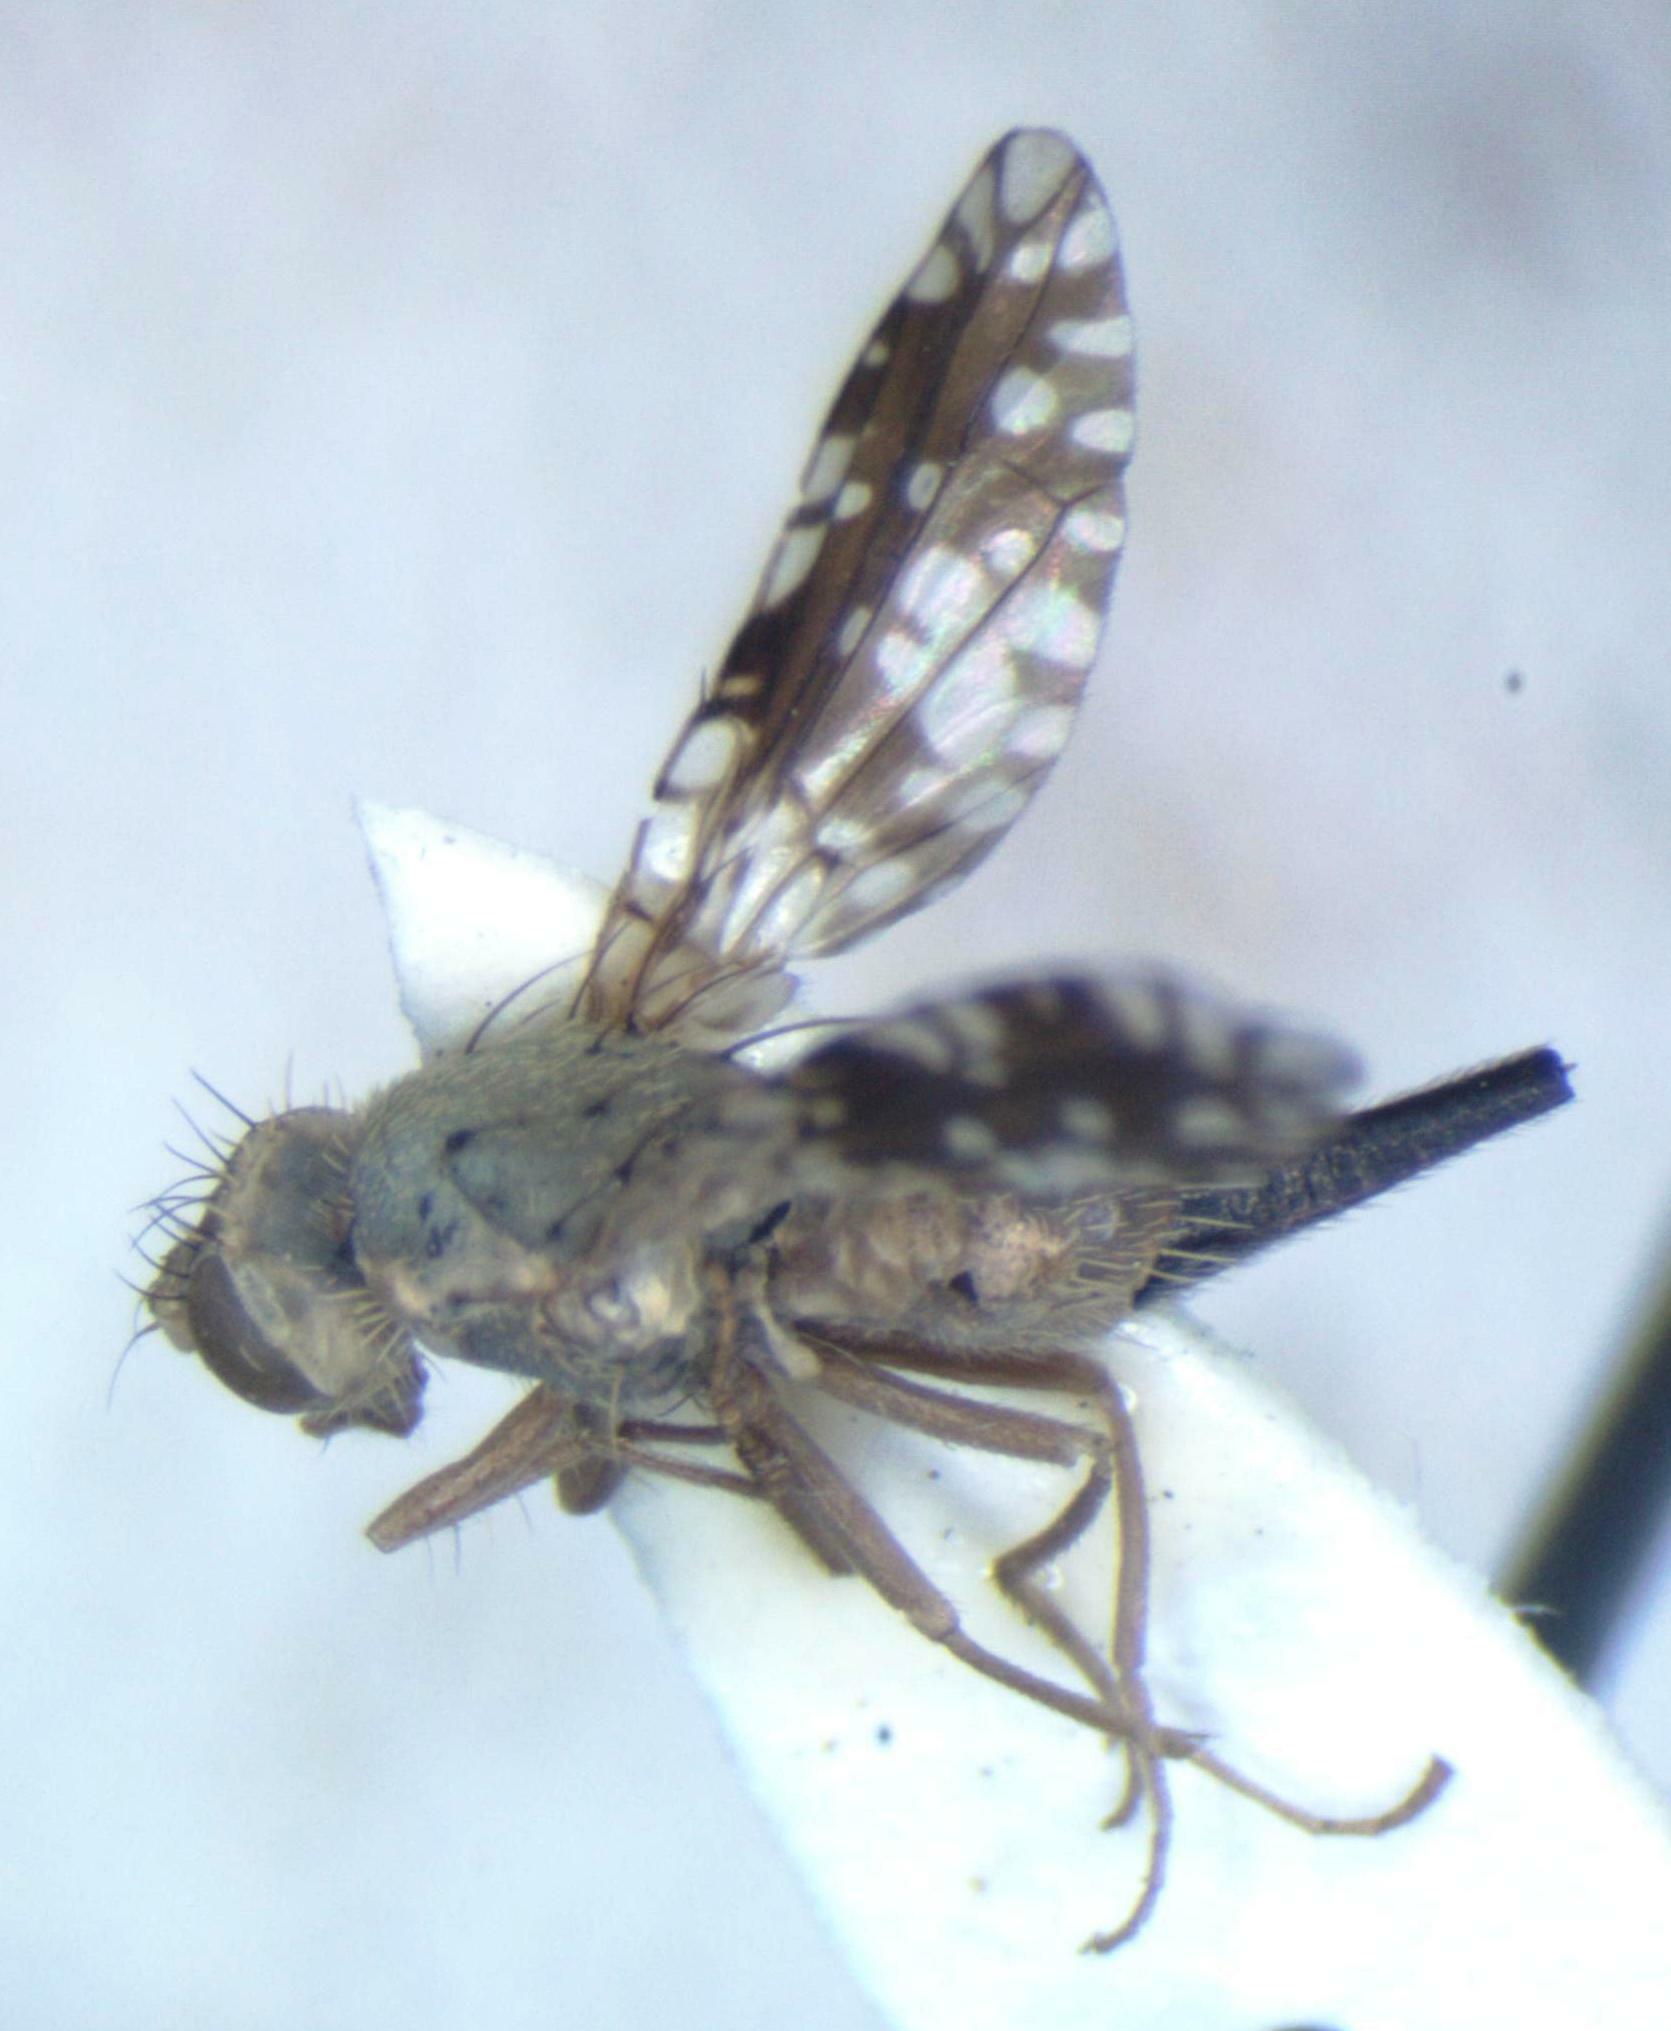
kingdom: Animalia
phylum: Arthropoda
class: Insecta
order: Diptera
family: Tephritidae
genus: Dyseuaresta
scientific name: Dyseuaresta mexicana
